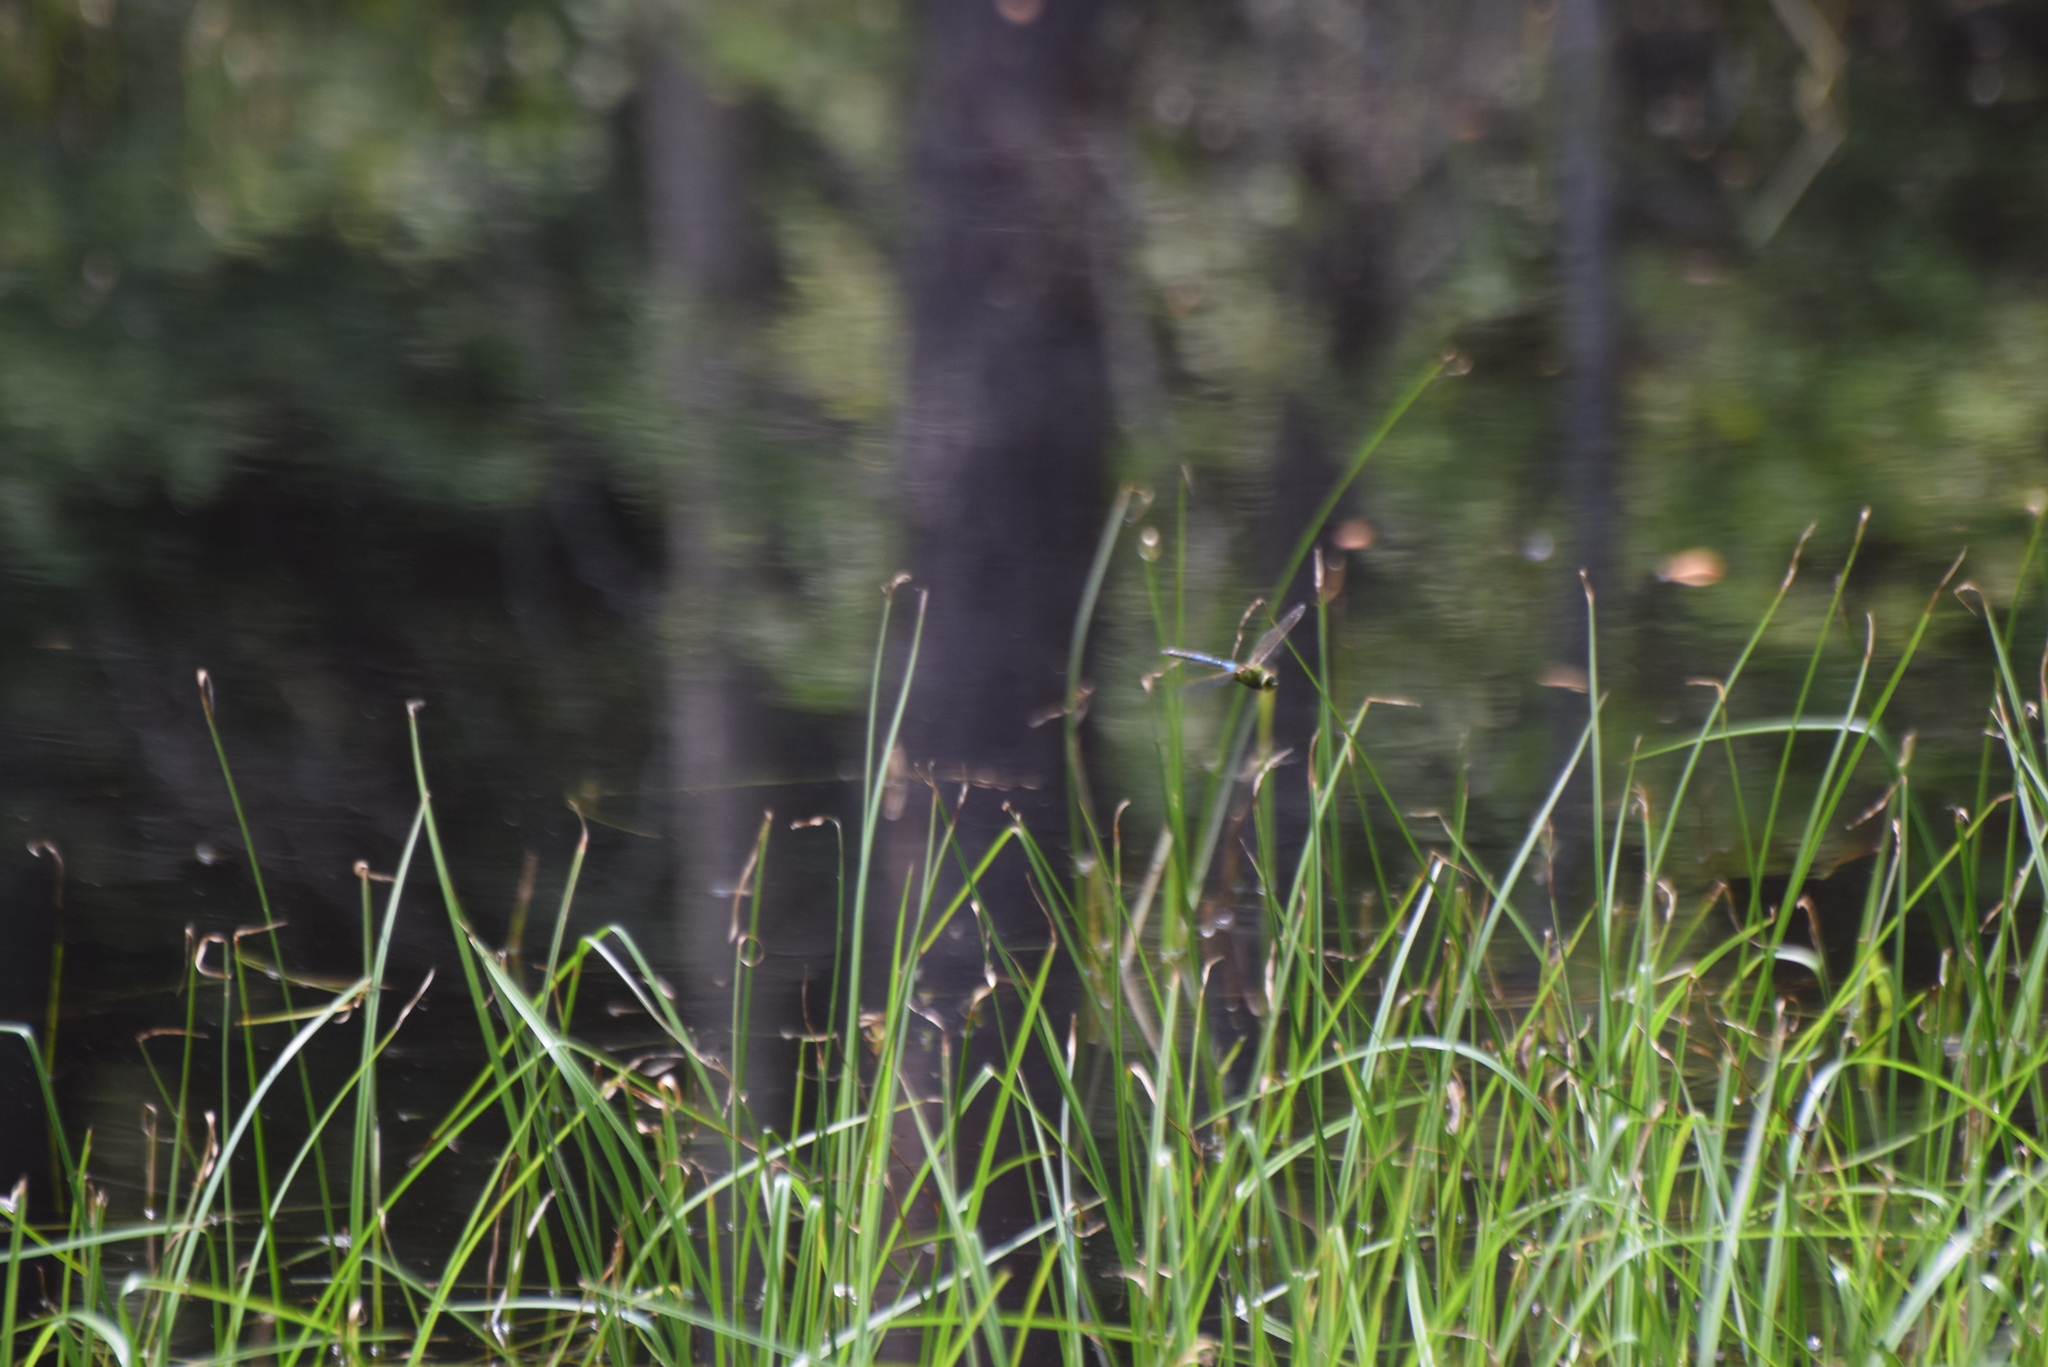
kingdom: Animalia
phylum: Arthropoda
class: Insecta
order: Odonata
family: Aeshnidae
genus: Anax
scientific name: Anax junius
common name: Common green darner
